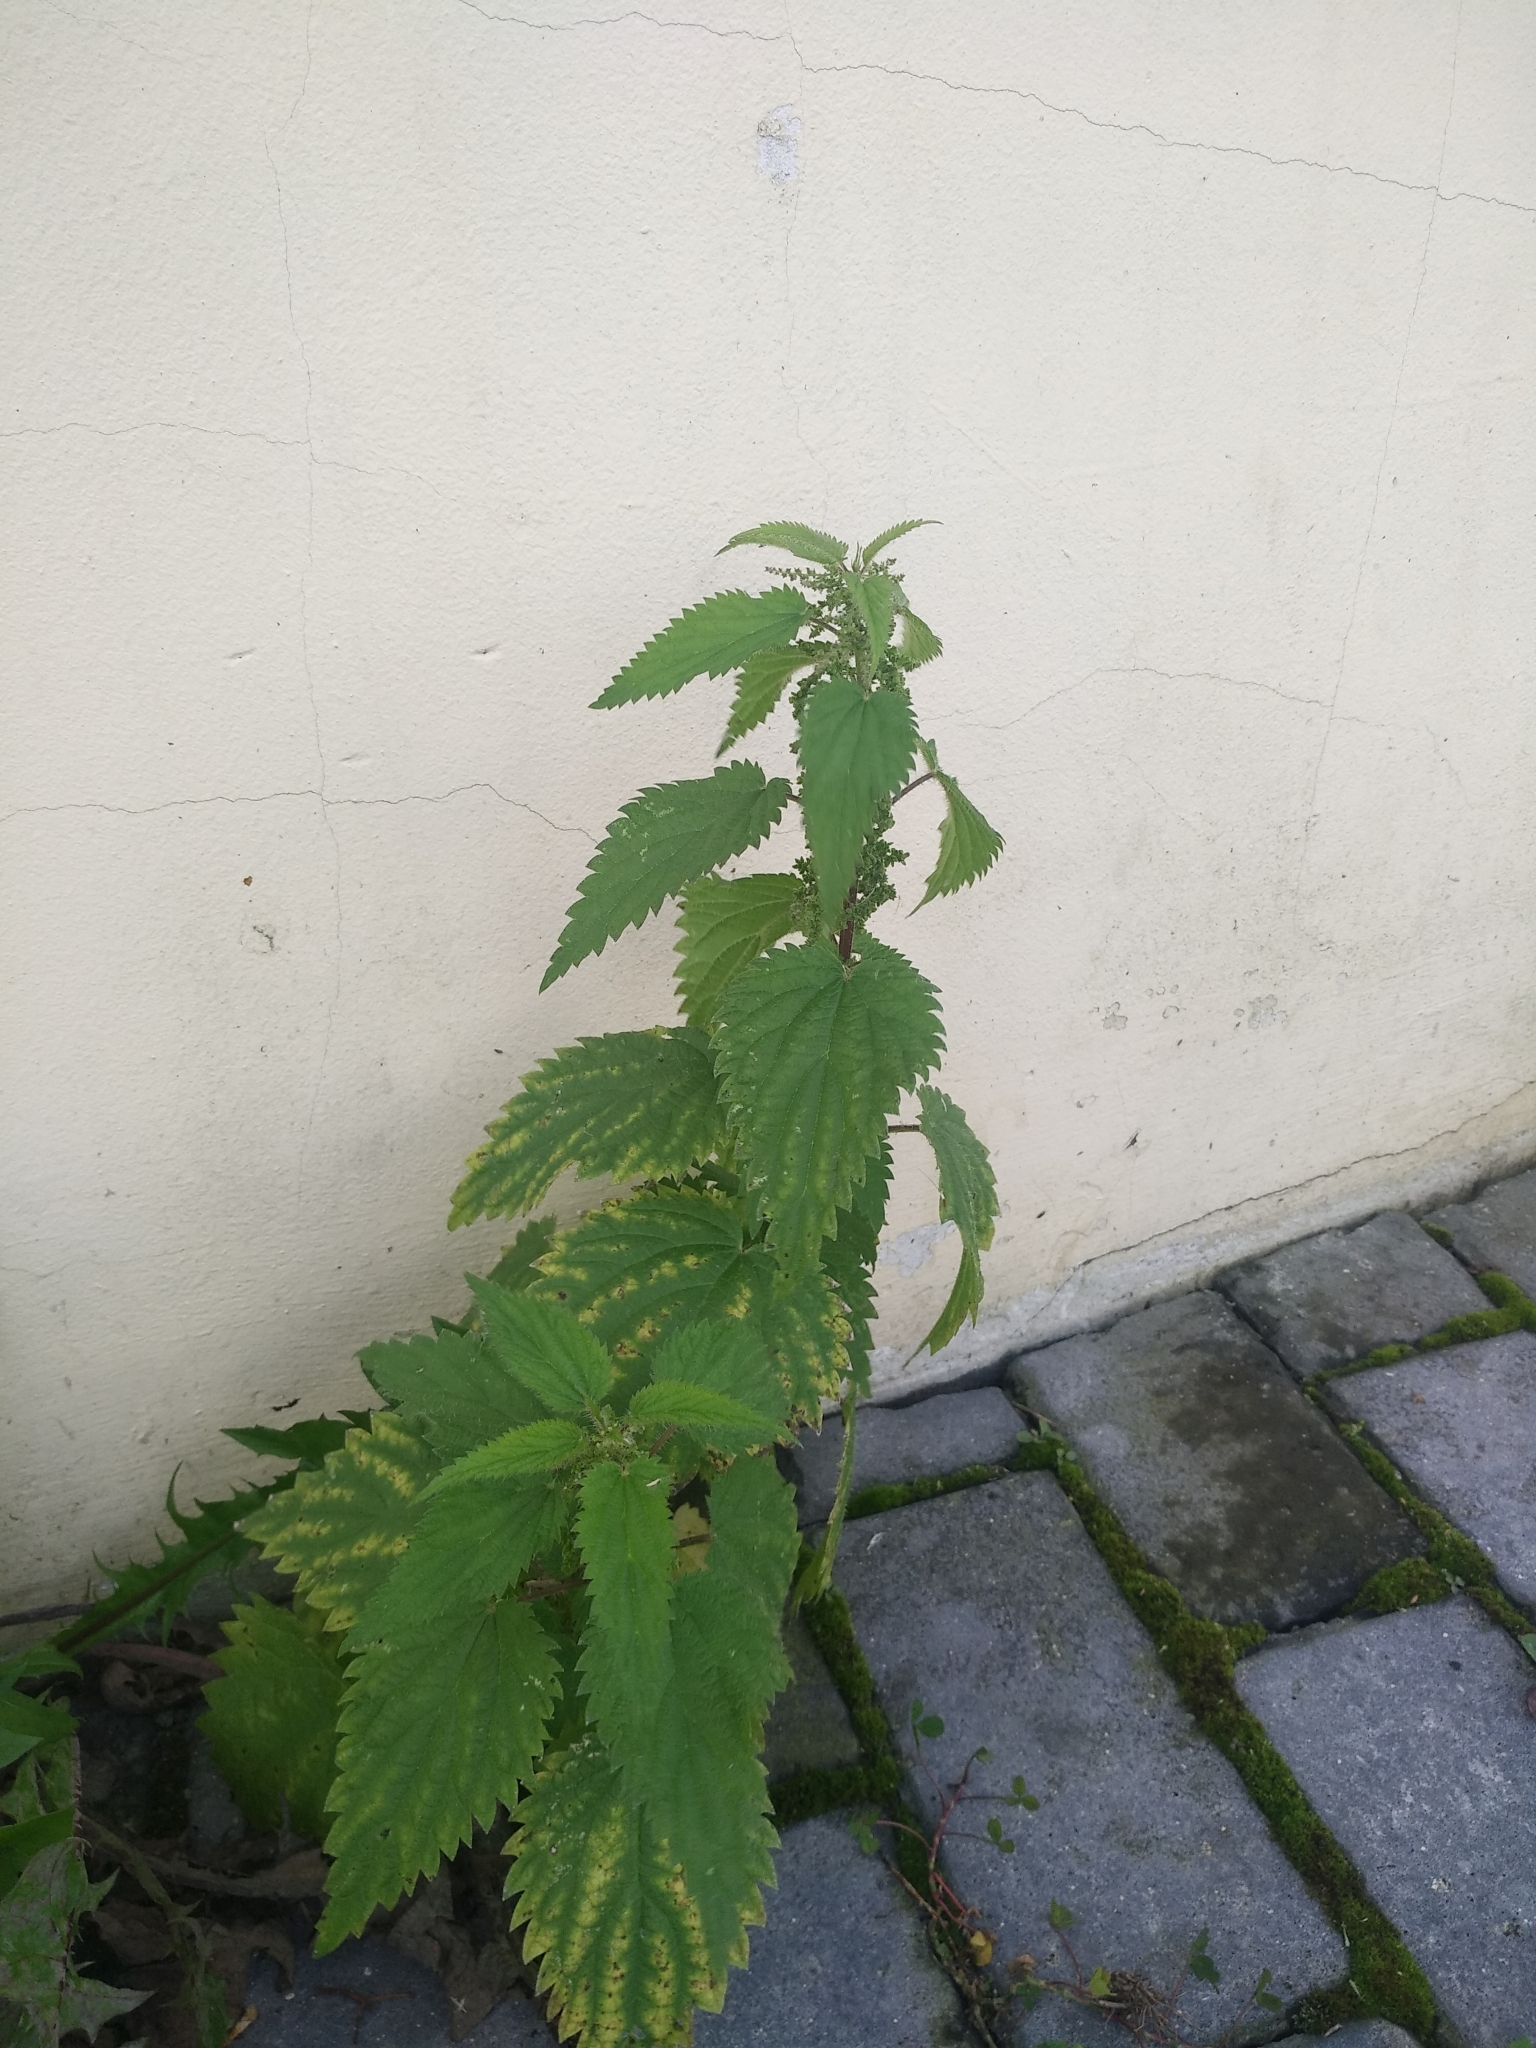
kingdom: Plantae
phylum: Tracheophyta
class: Magnoliopsida
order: Rosales
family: Urticaceae
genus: Urtica
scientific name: Urtica dioica
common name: Common nettle
